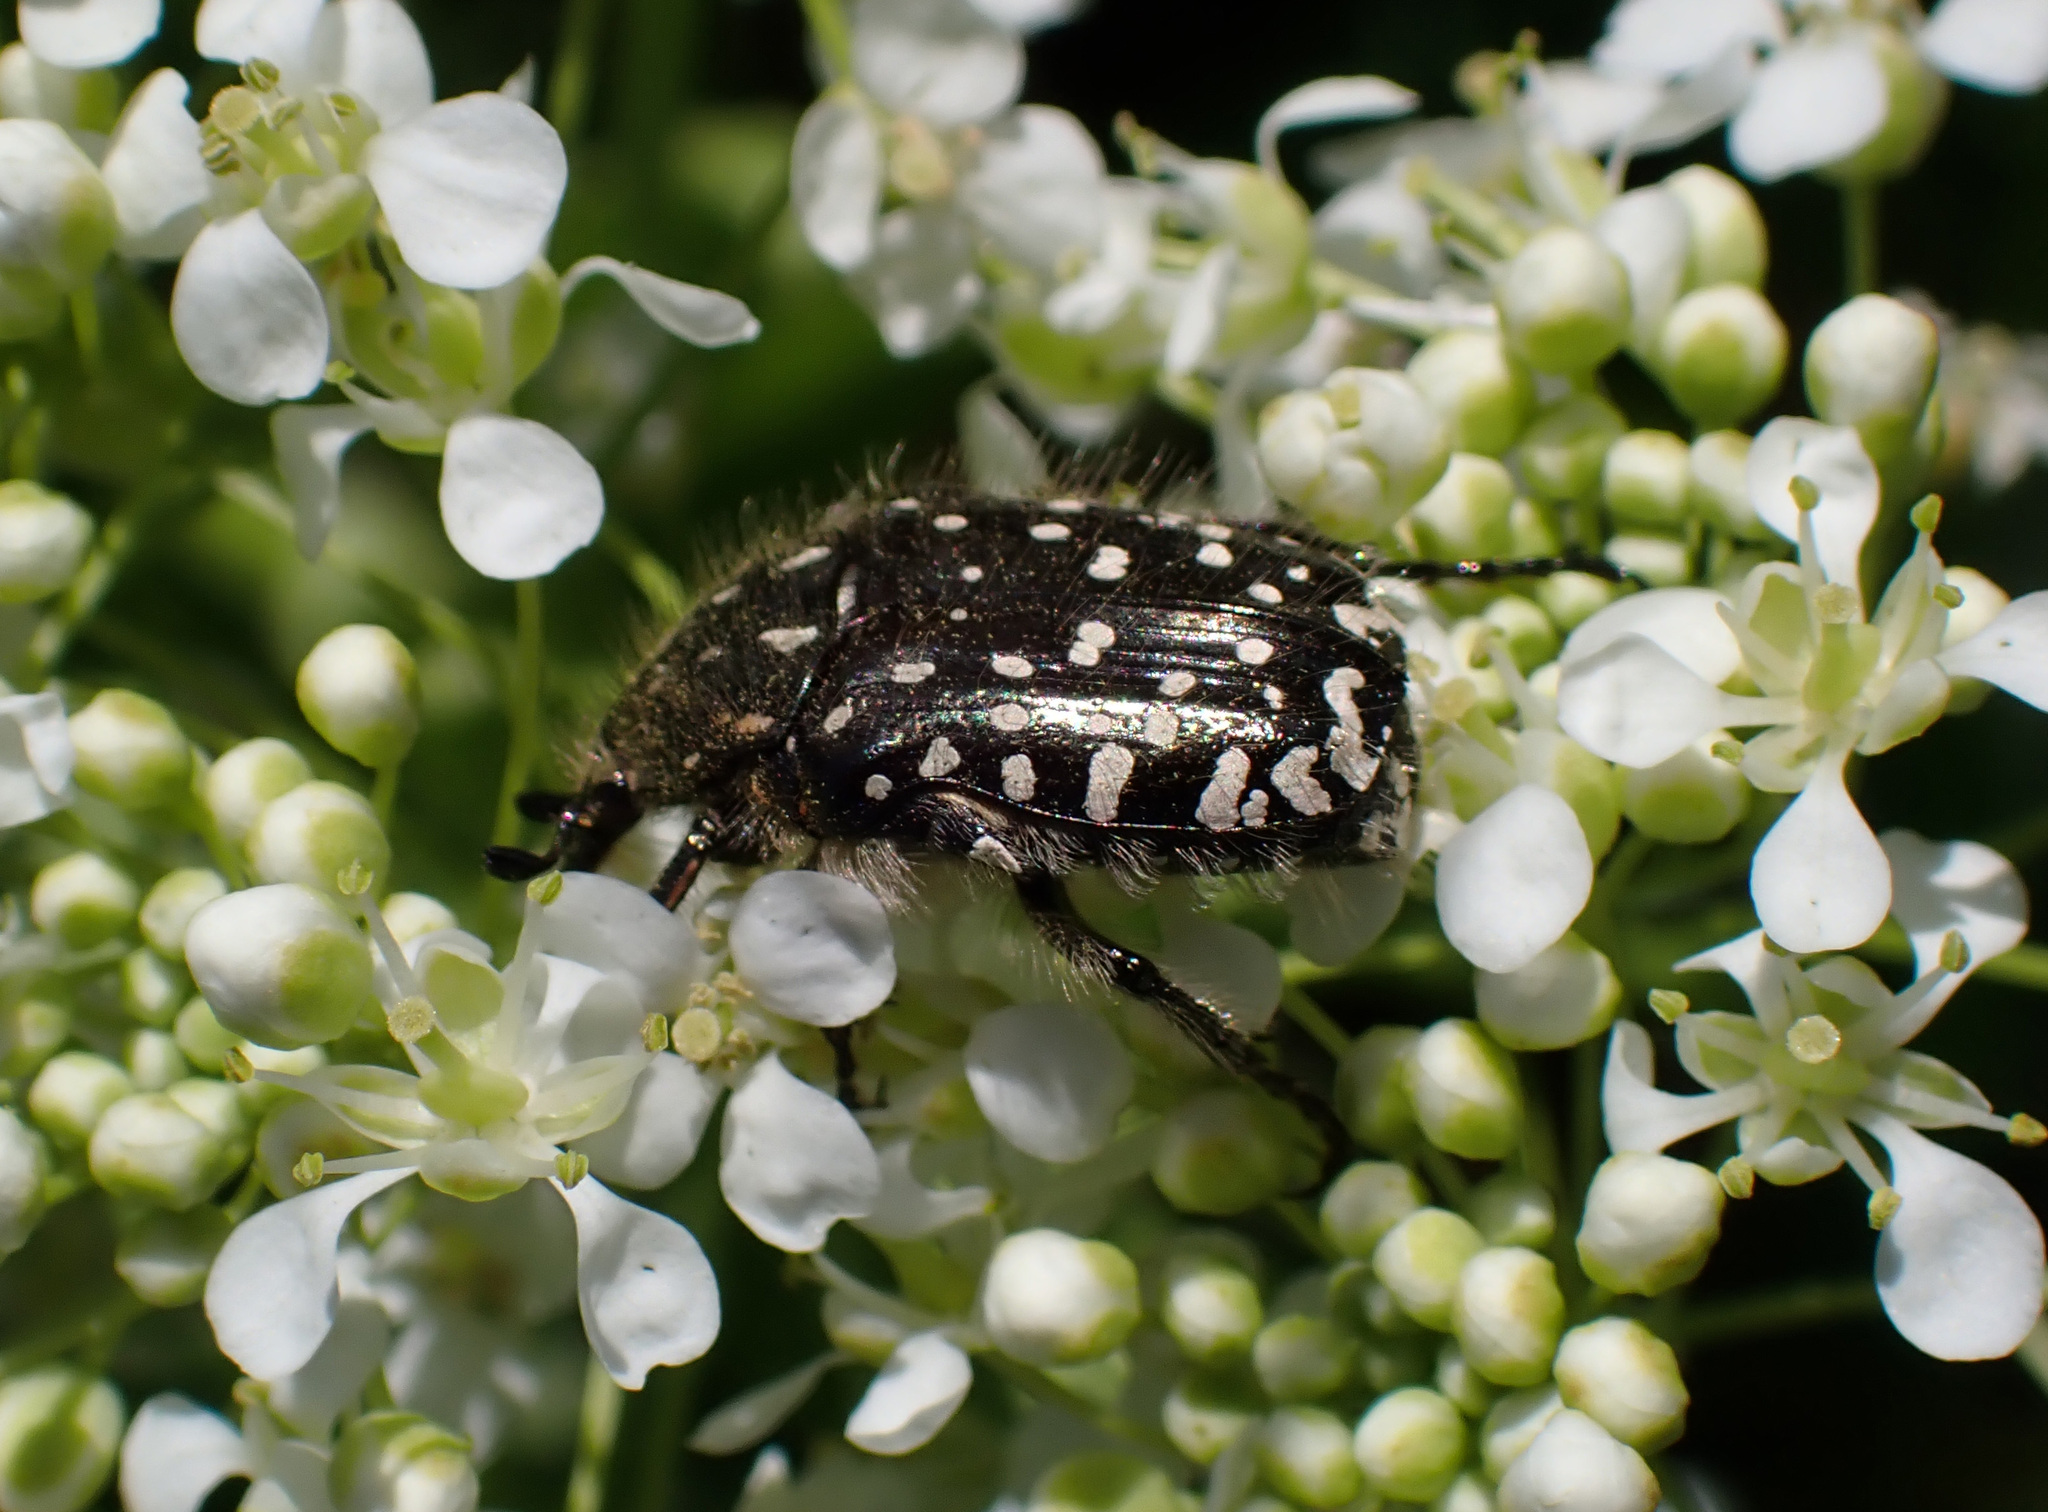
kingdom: Animalia
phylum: Arthropoda
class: Insecta
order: Coleoptera
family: Scarabaeidae
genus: Oxythyrea
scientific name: Oxythyrea funesta
